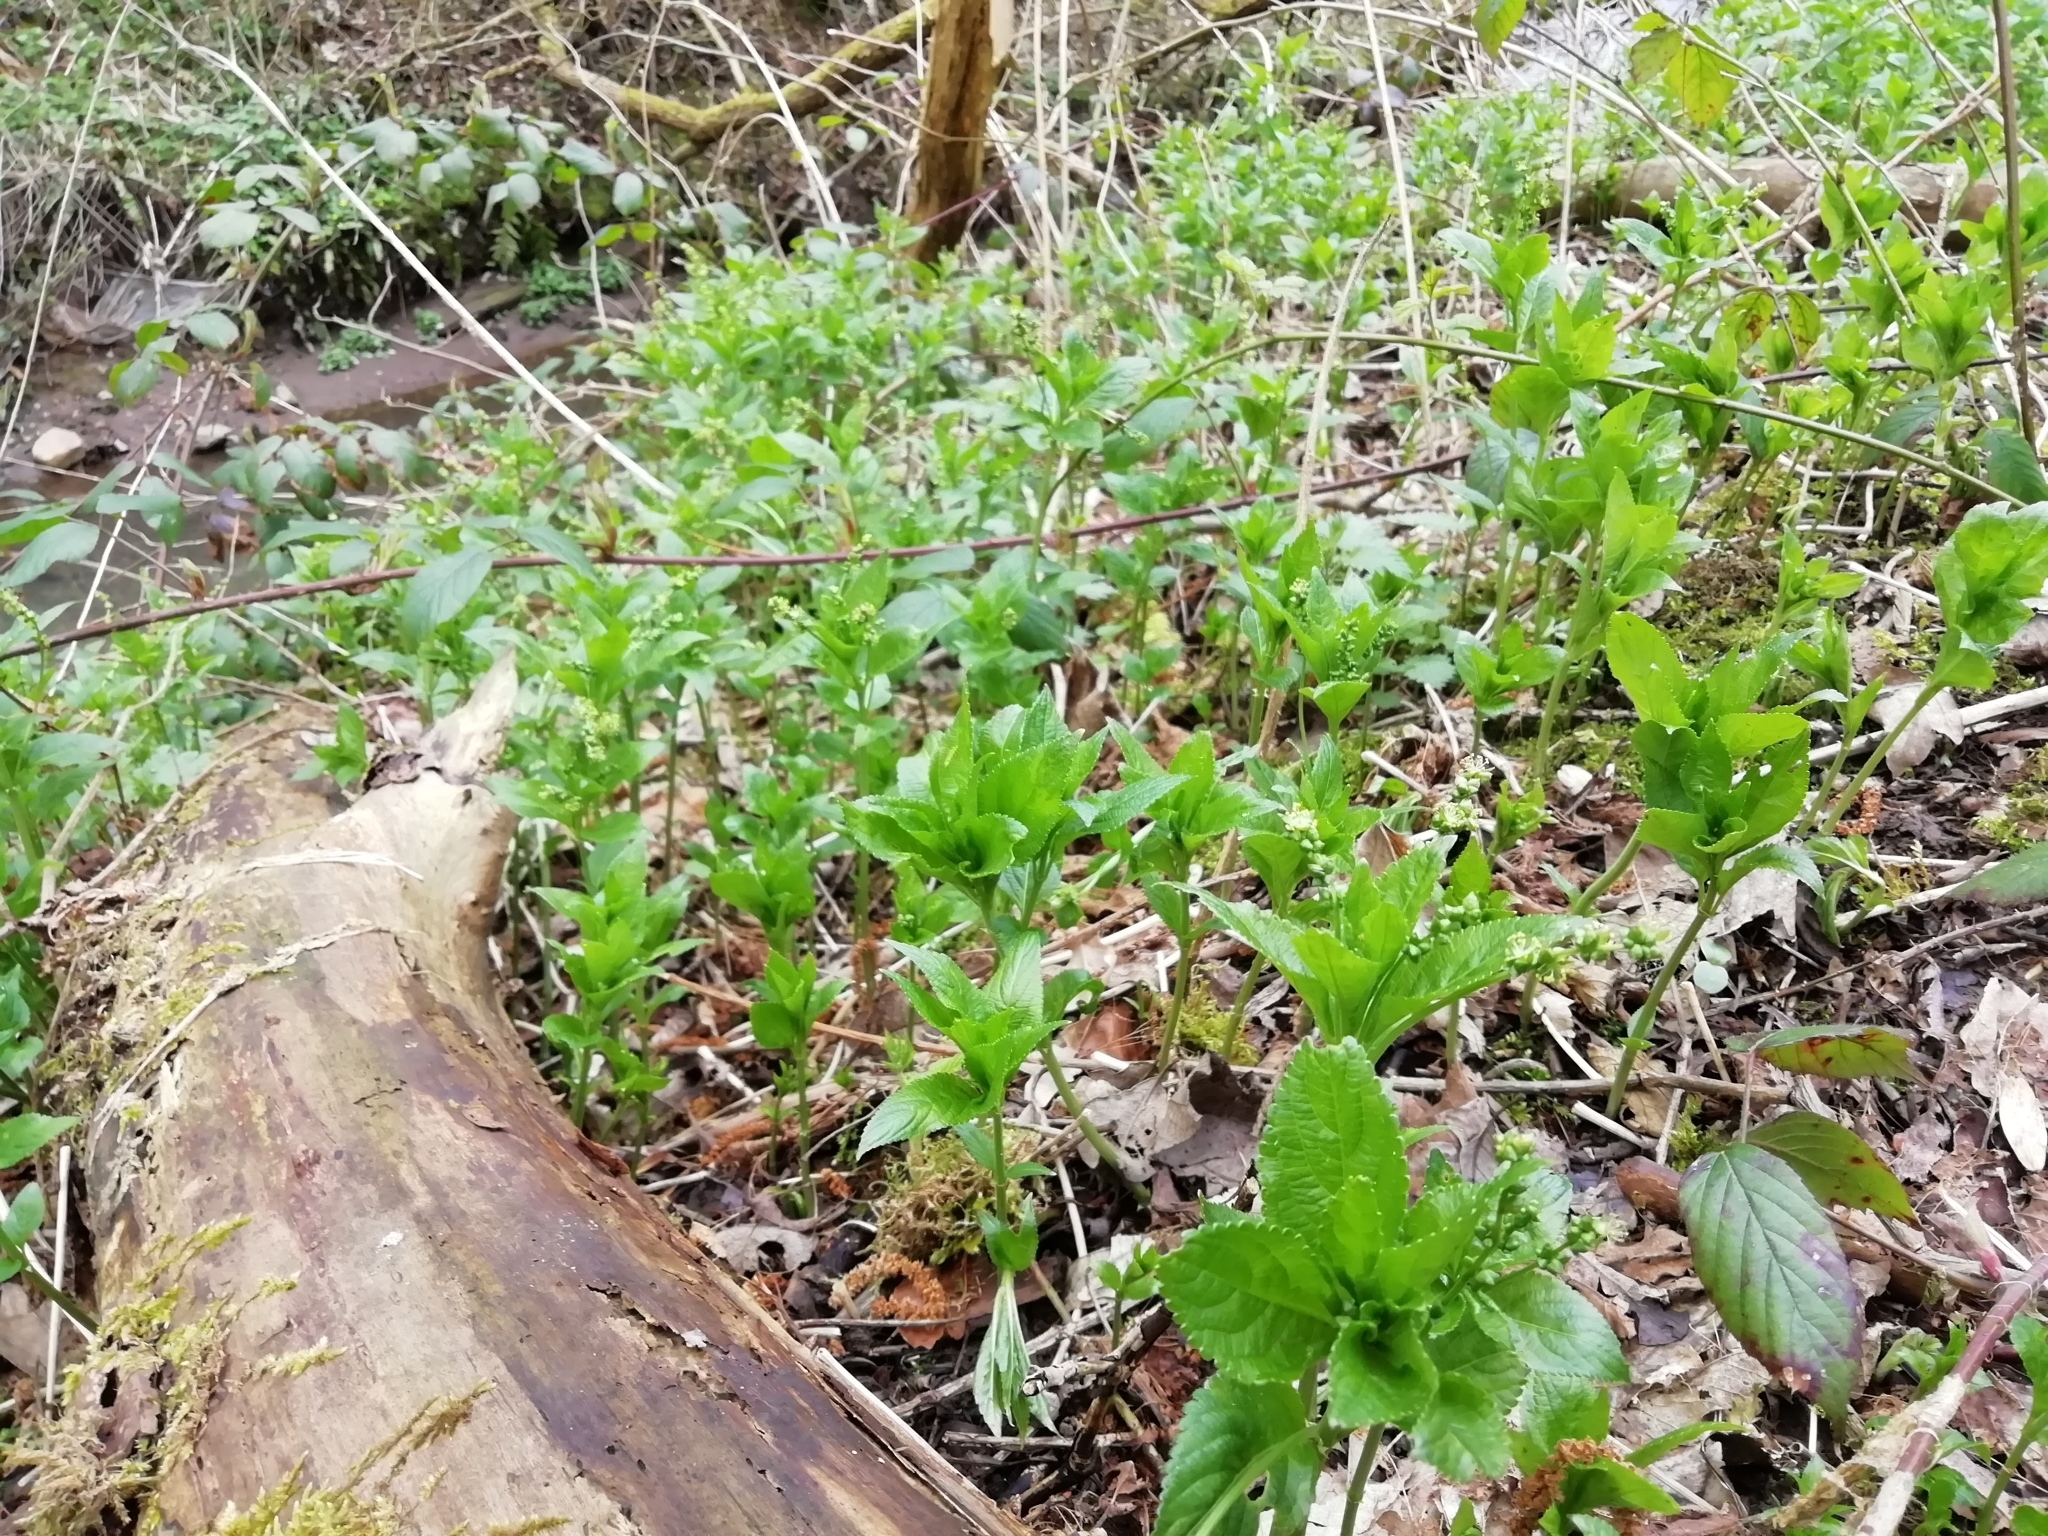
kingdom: Plantae
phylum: Tracheophyta
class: Magnoliopsida
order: Malpighiales
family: Euphorbiaceae
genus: Mercurialis
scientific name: Mercurialis perennis
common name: Dog mercury
